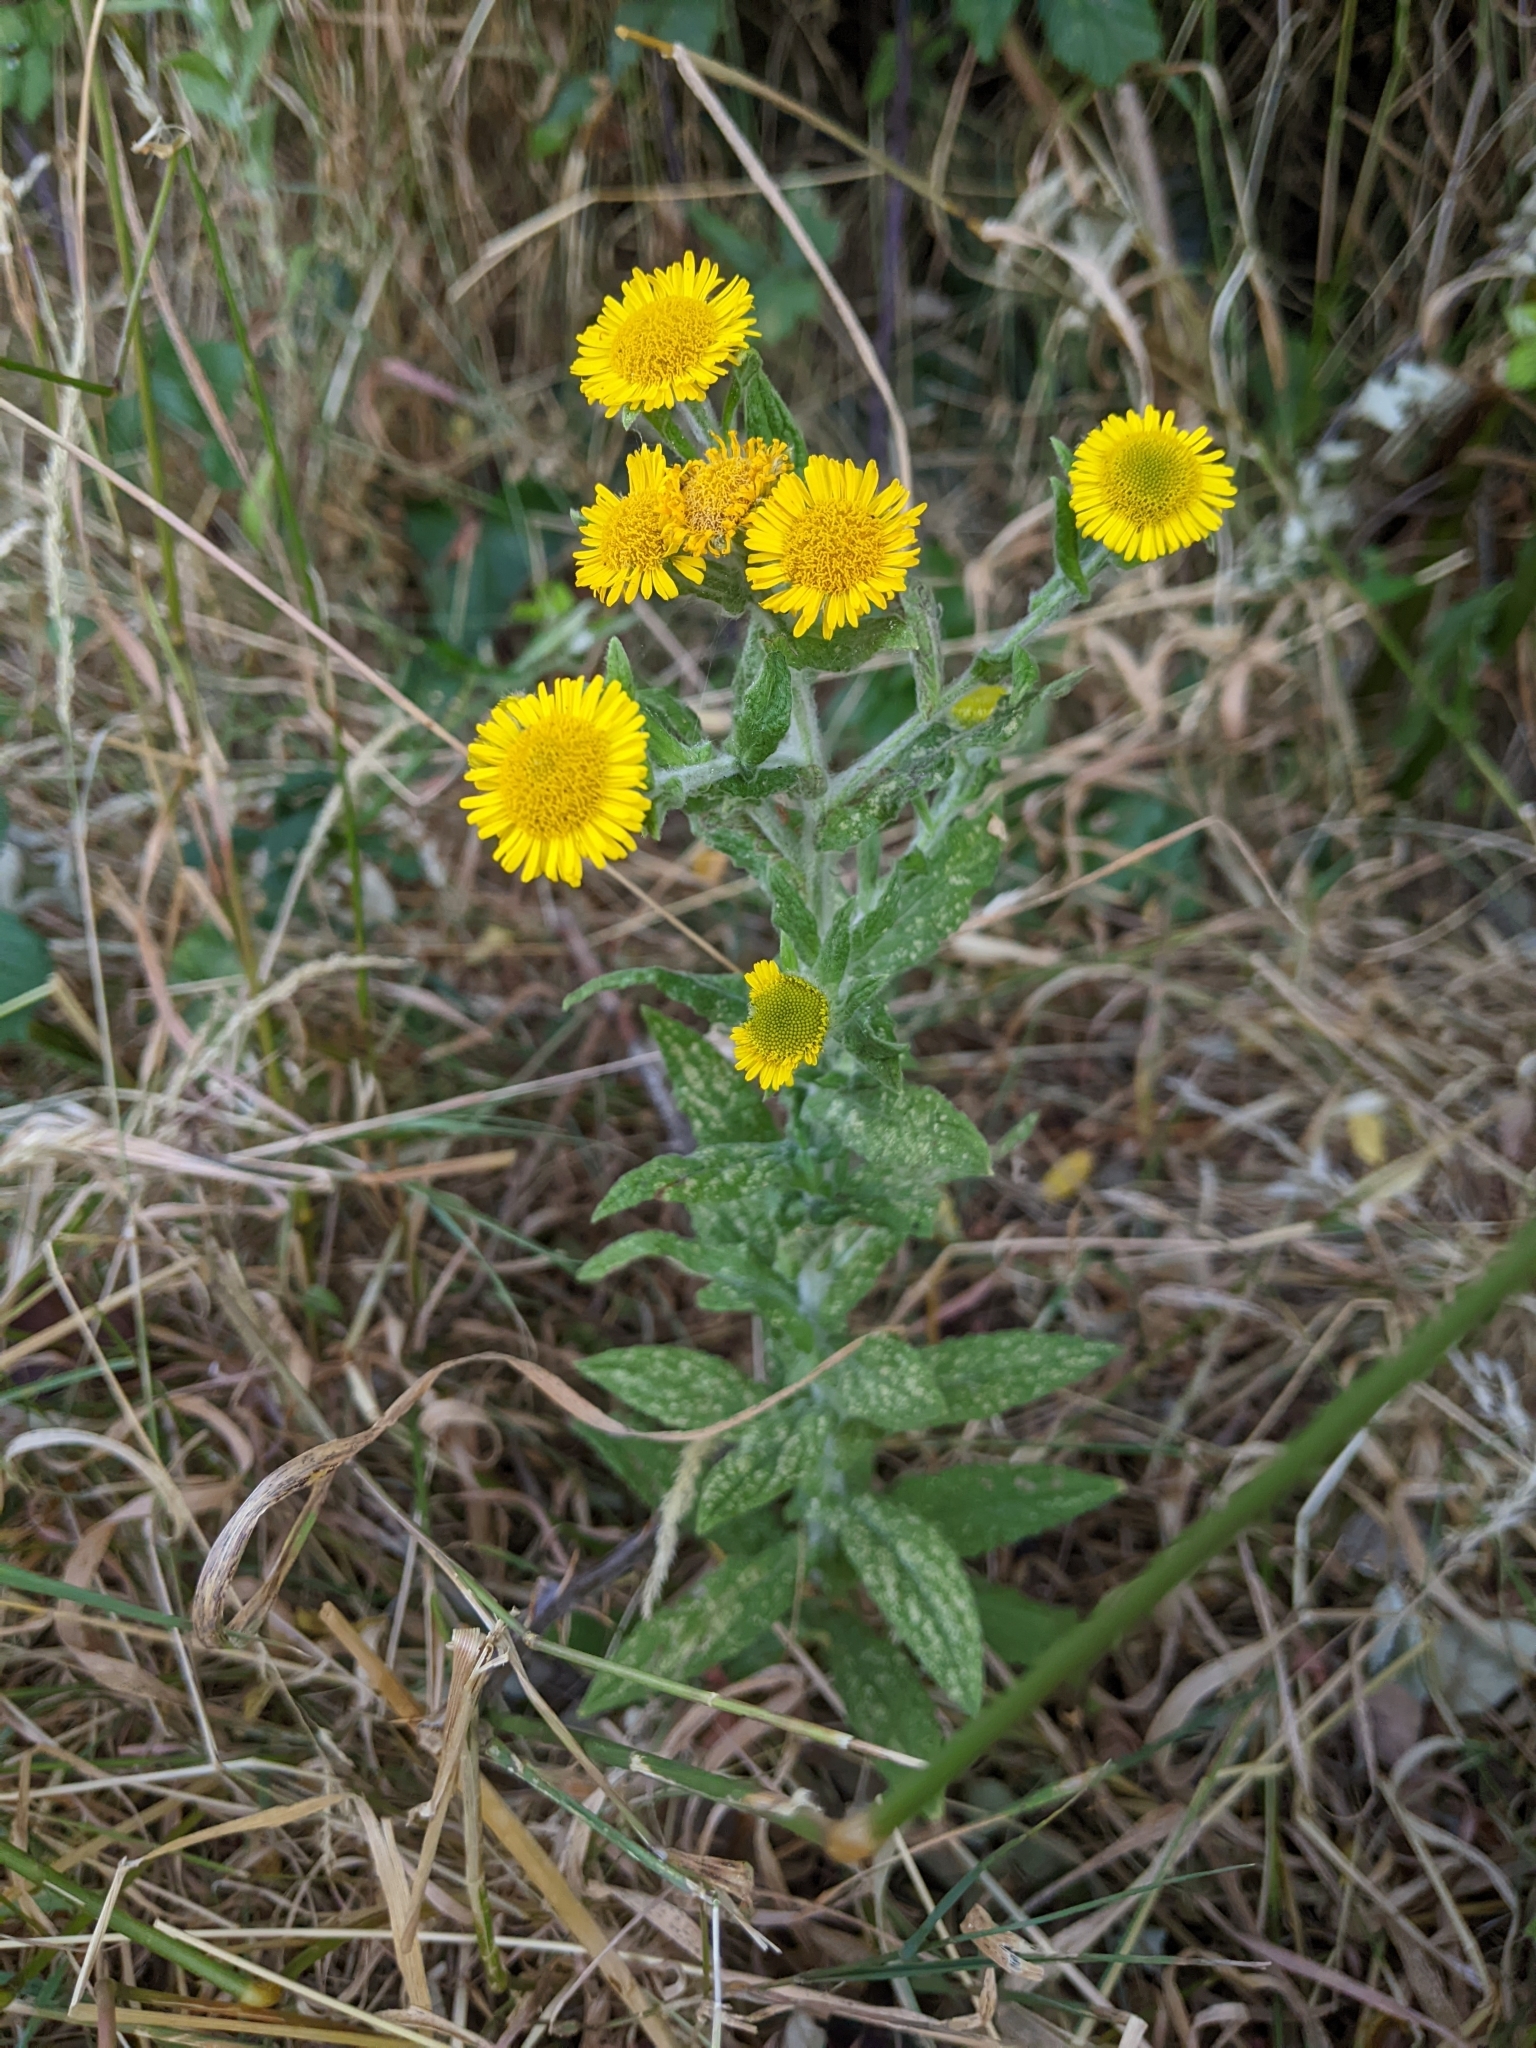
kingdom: Plantae
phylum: Tracheophyta
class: Magnoliopsida
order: Asterales
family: Asteraceae
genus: Pulicaria
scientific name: Pulicaria dysenterica
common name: Common fleabane
